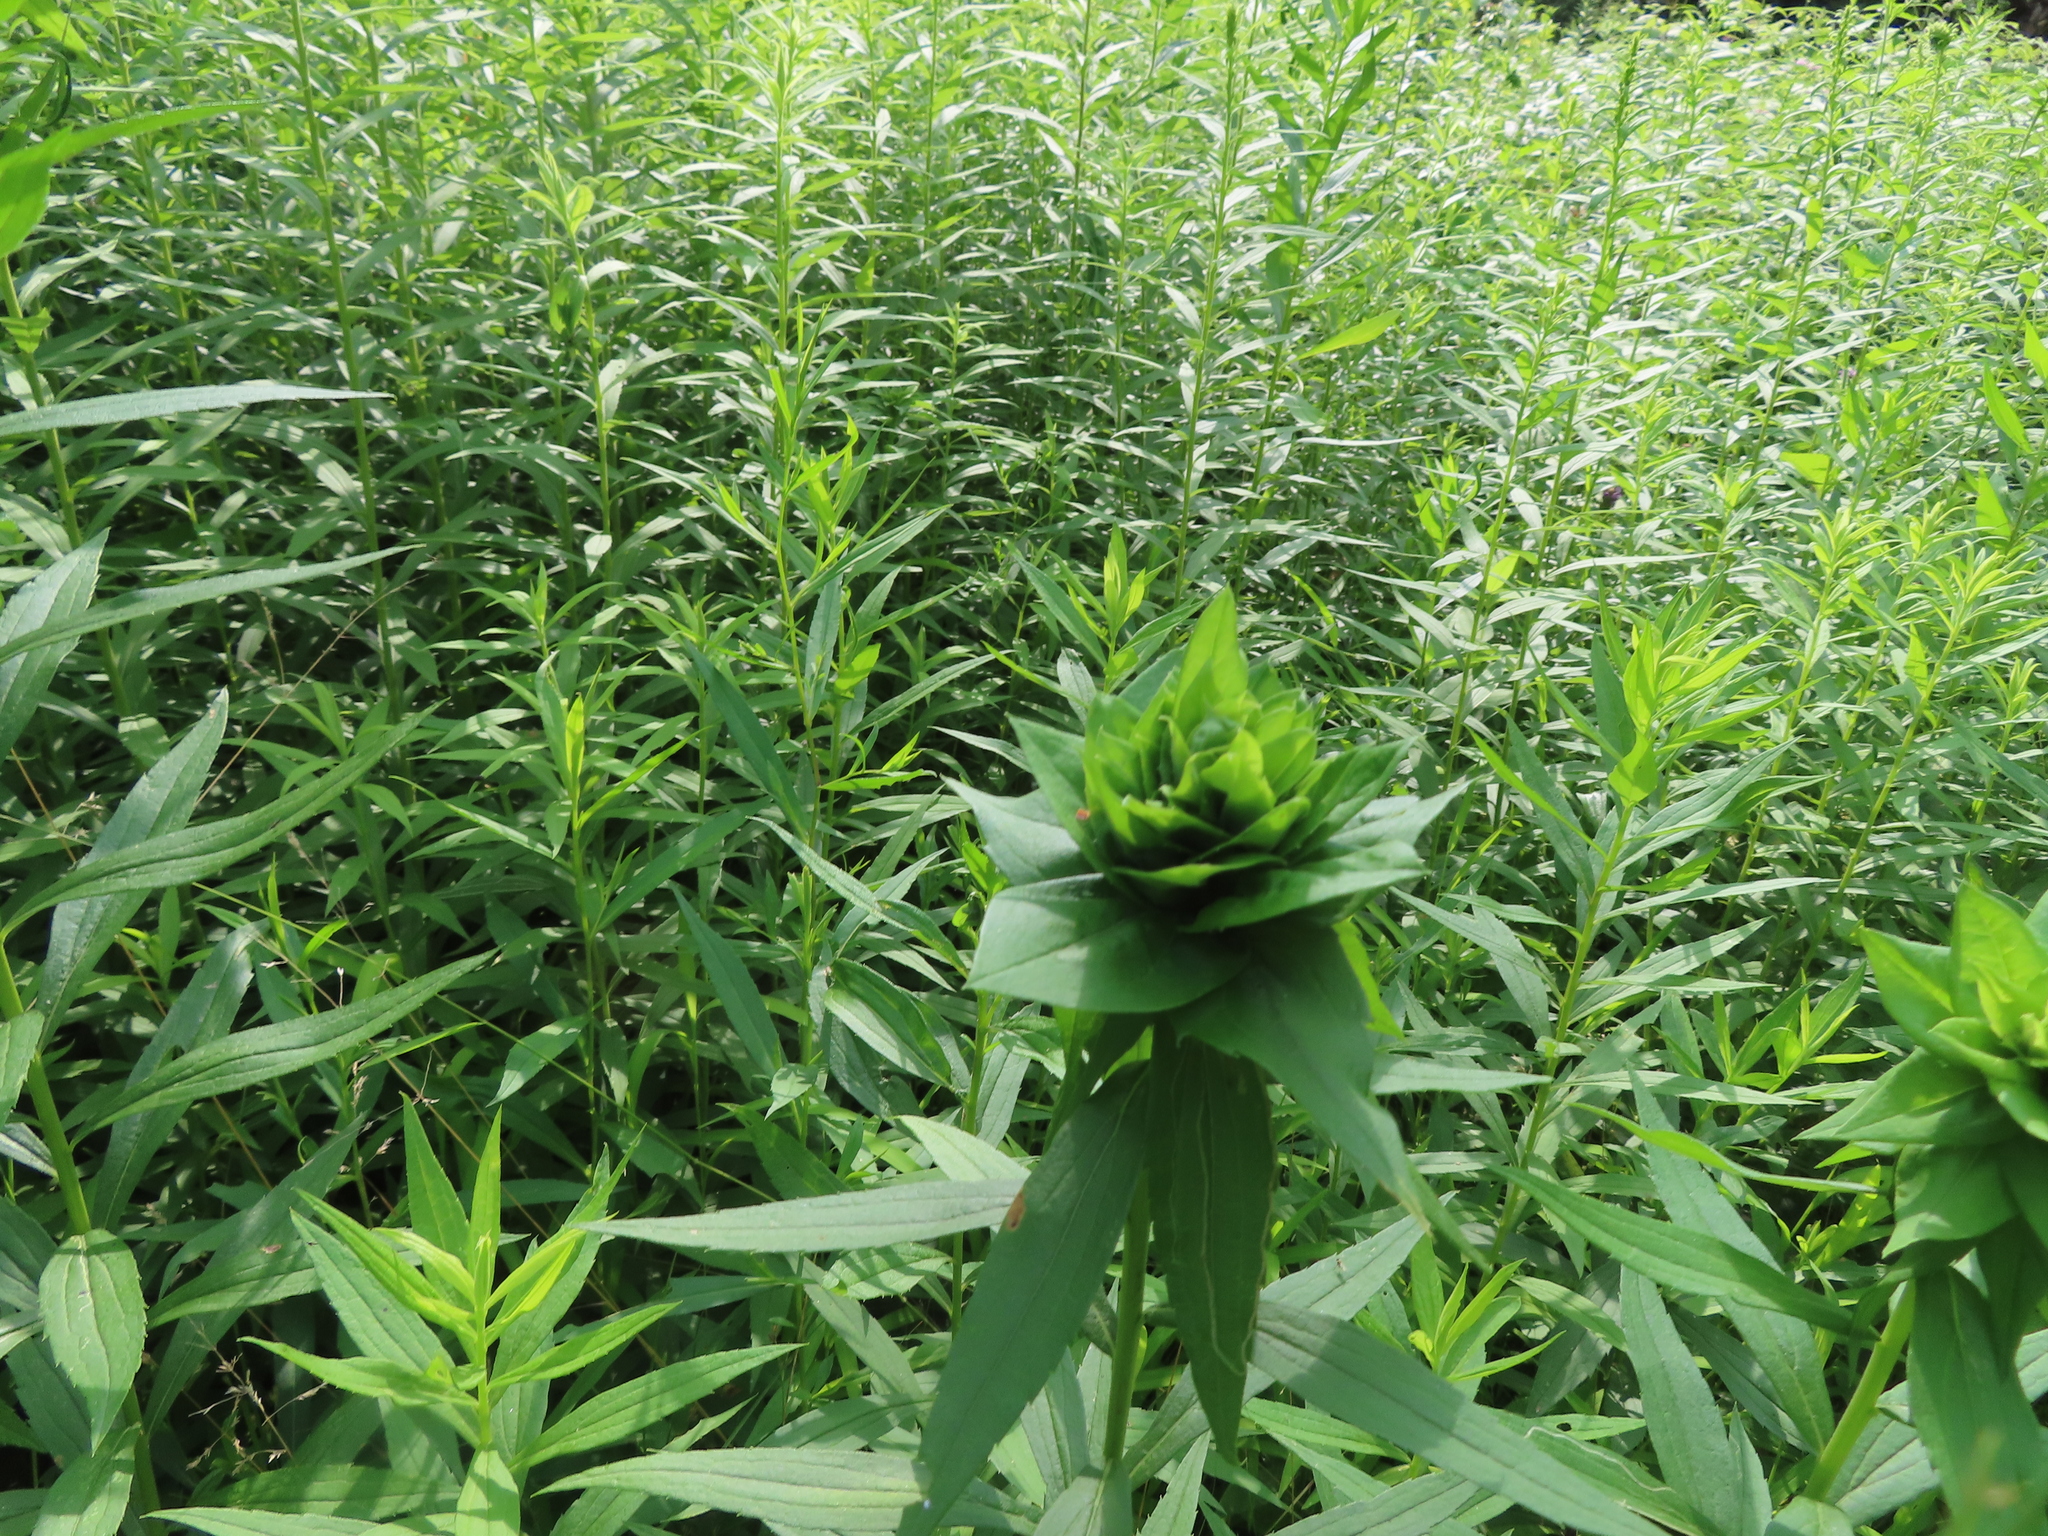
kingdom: Animalia
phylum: Arthropoda
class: Insecta
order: Diptera
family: Cecidomyiidae
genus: Rhopalomyia
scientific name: Rhopalomyia solidaginis
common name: Goldenrod bunch gall midge
